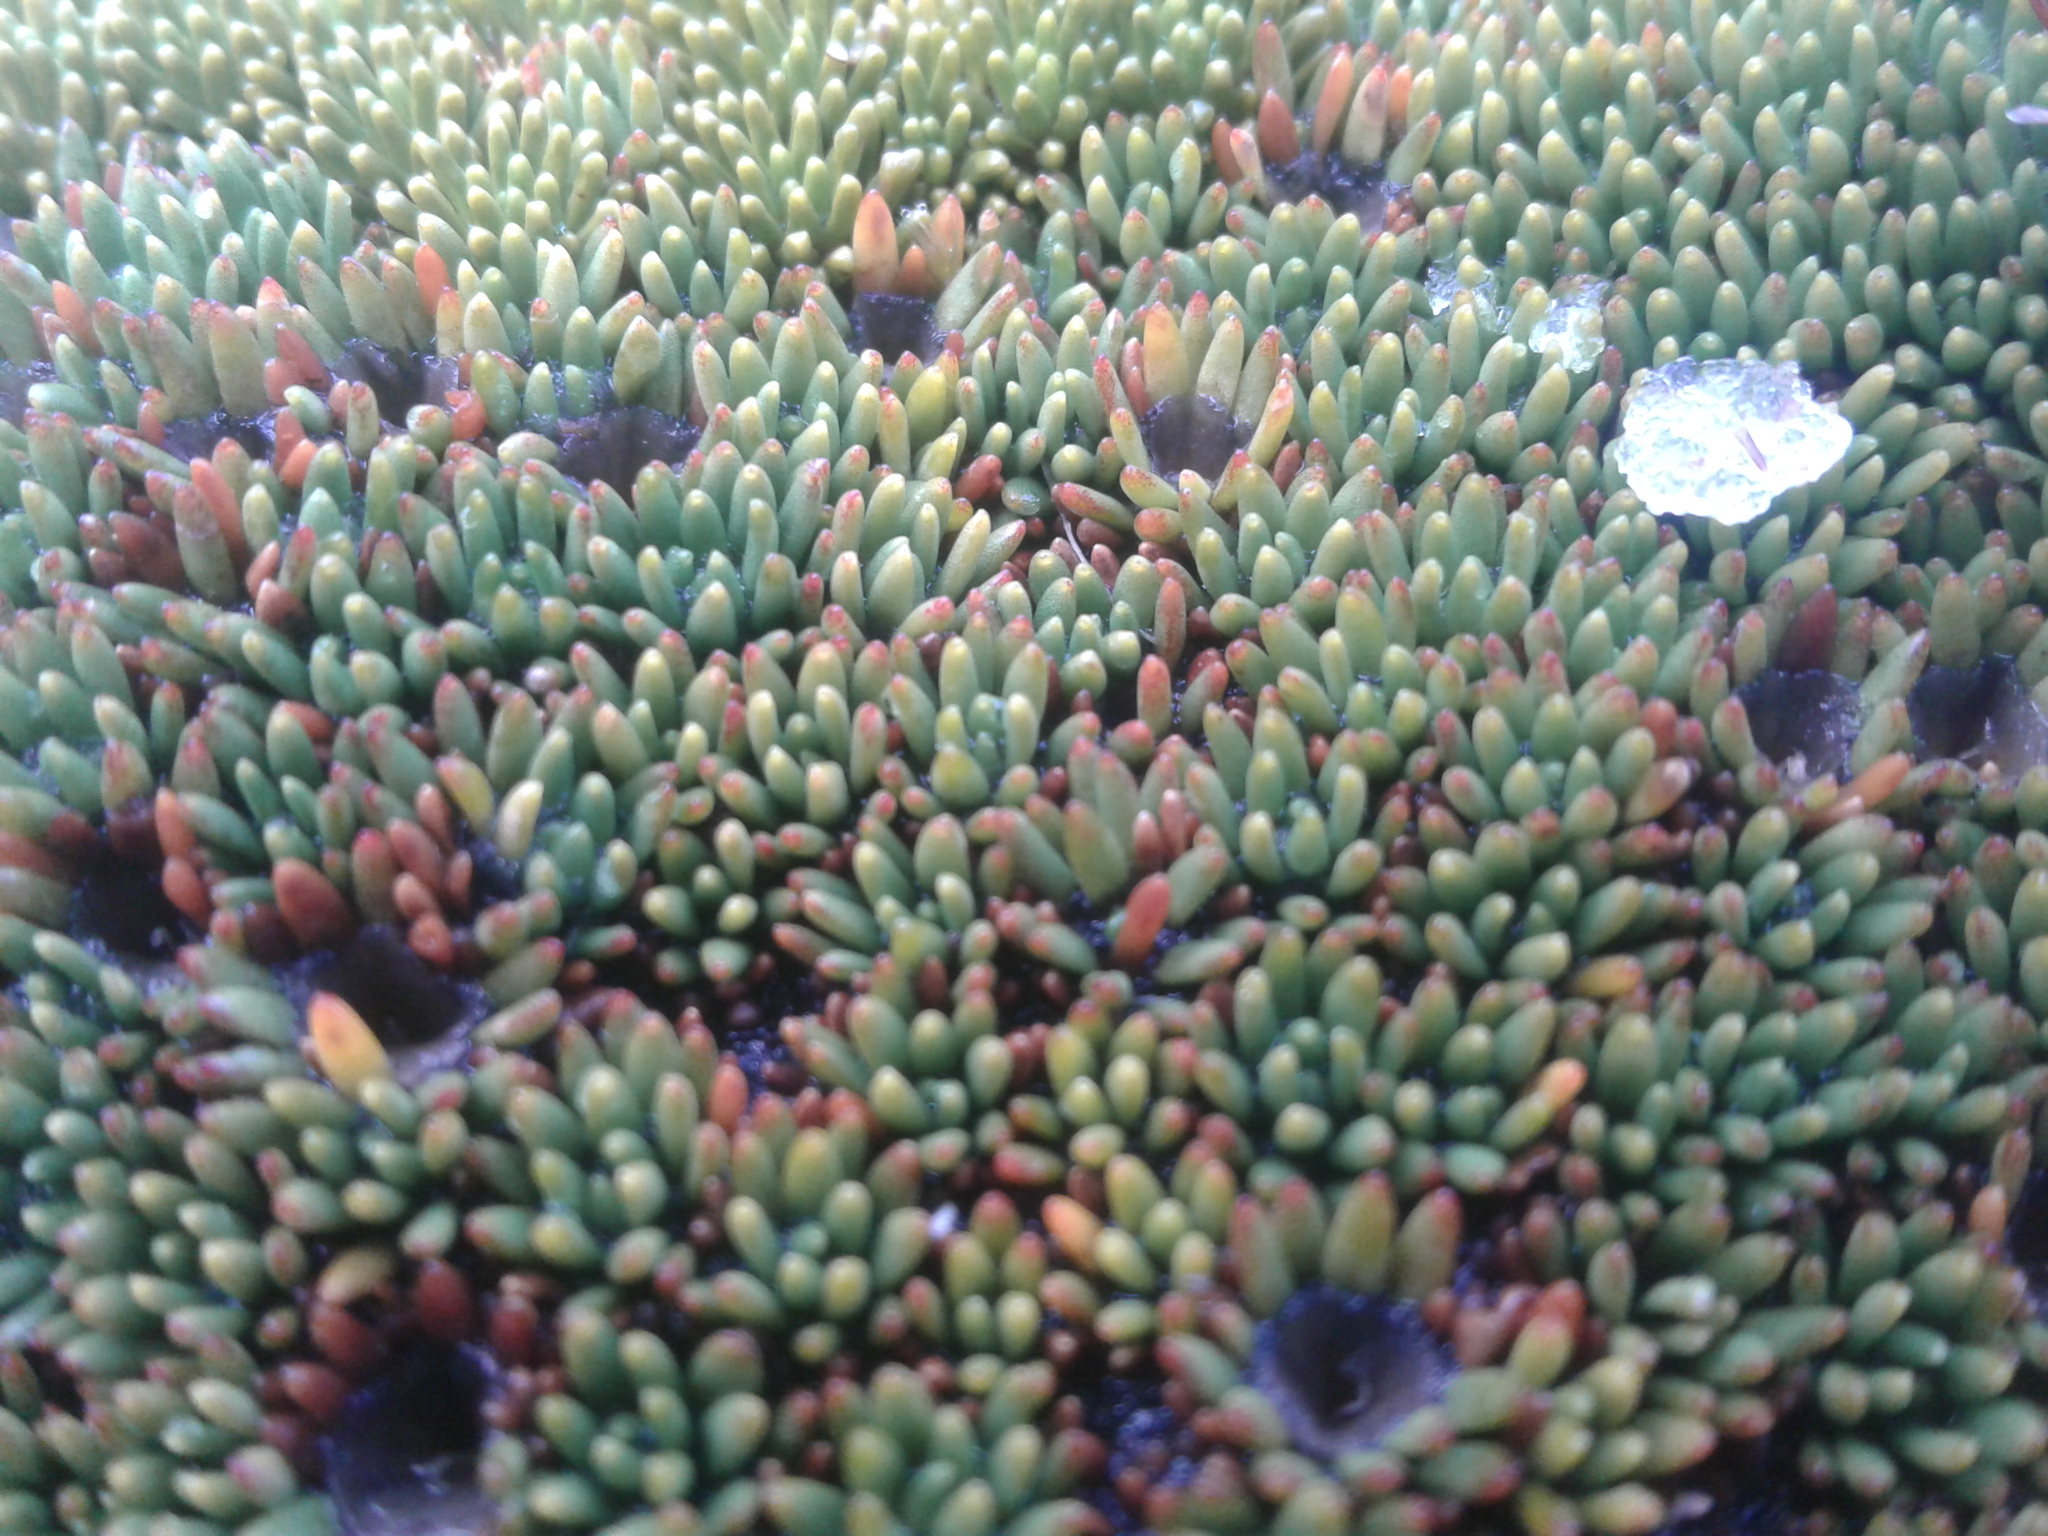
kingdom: Plantae
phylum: Tracheophyta
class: Magnoliopsida
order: Asterales
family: Stylidiaceae
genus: Donatia
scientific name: Donatia novae-zelandiae
